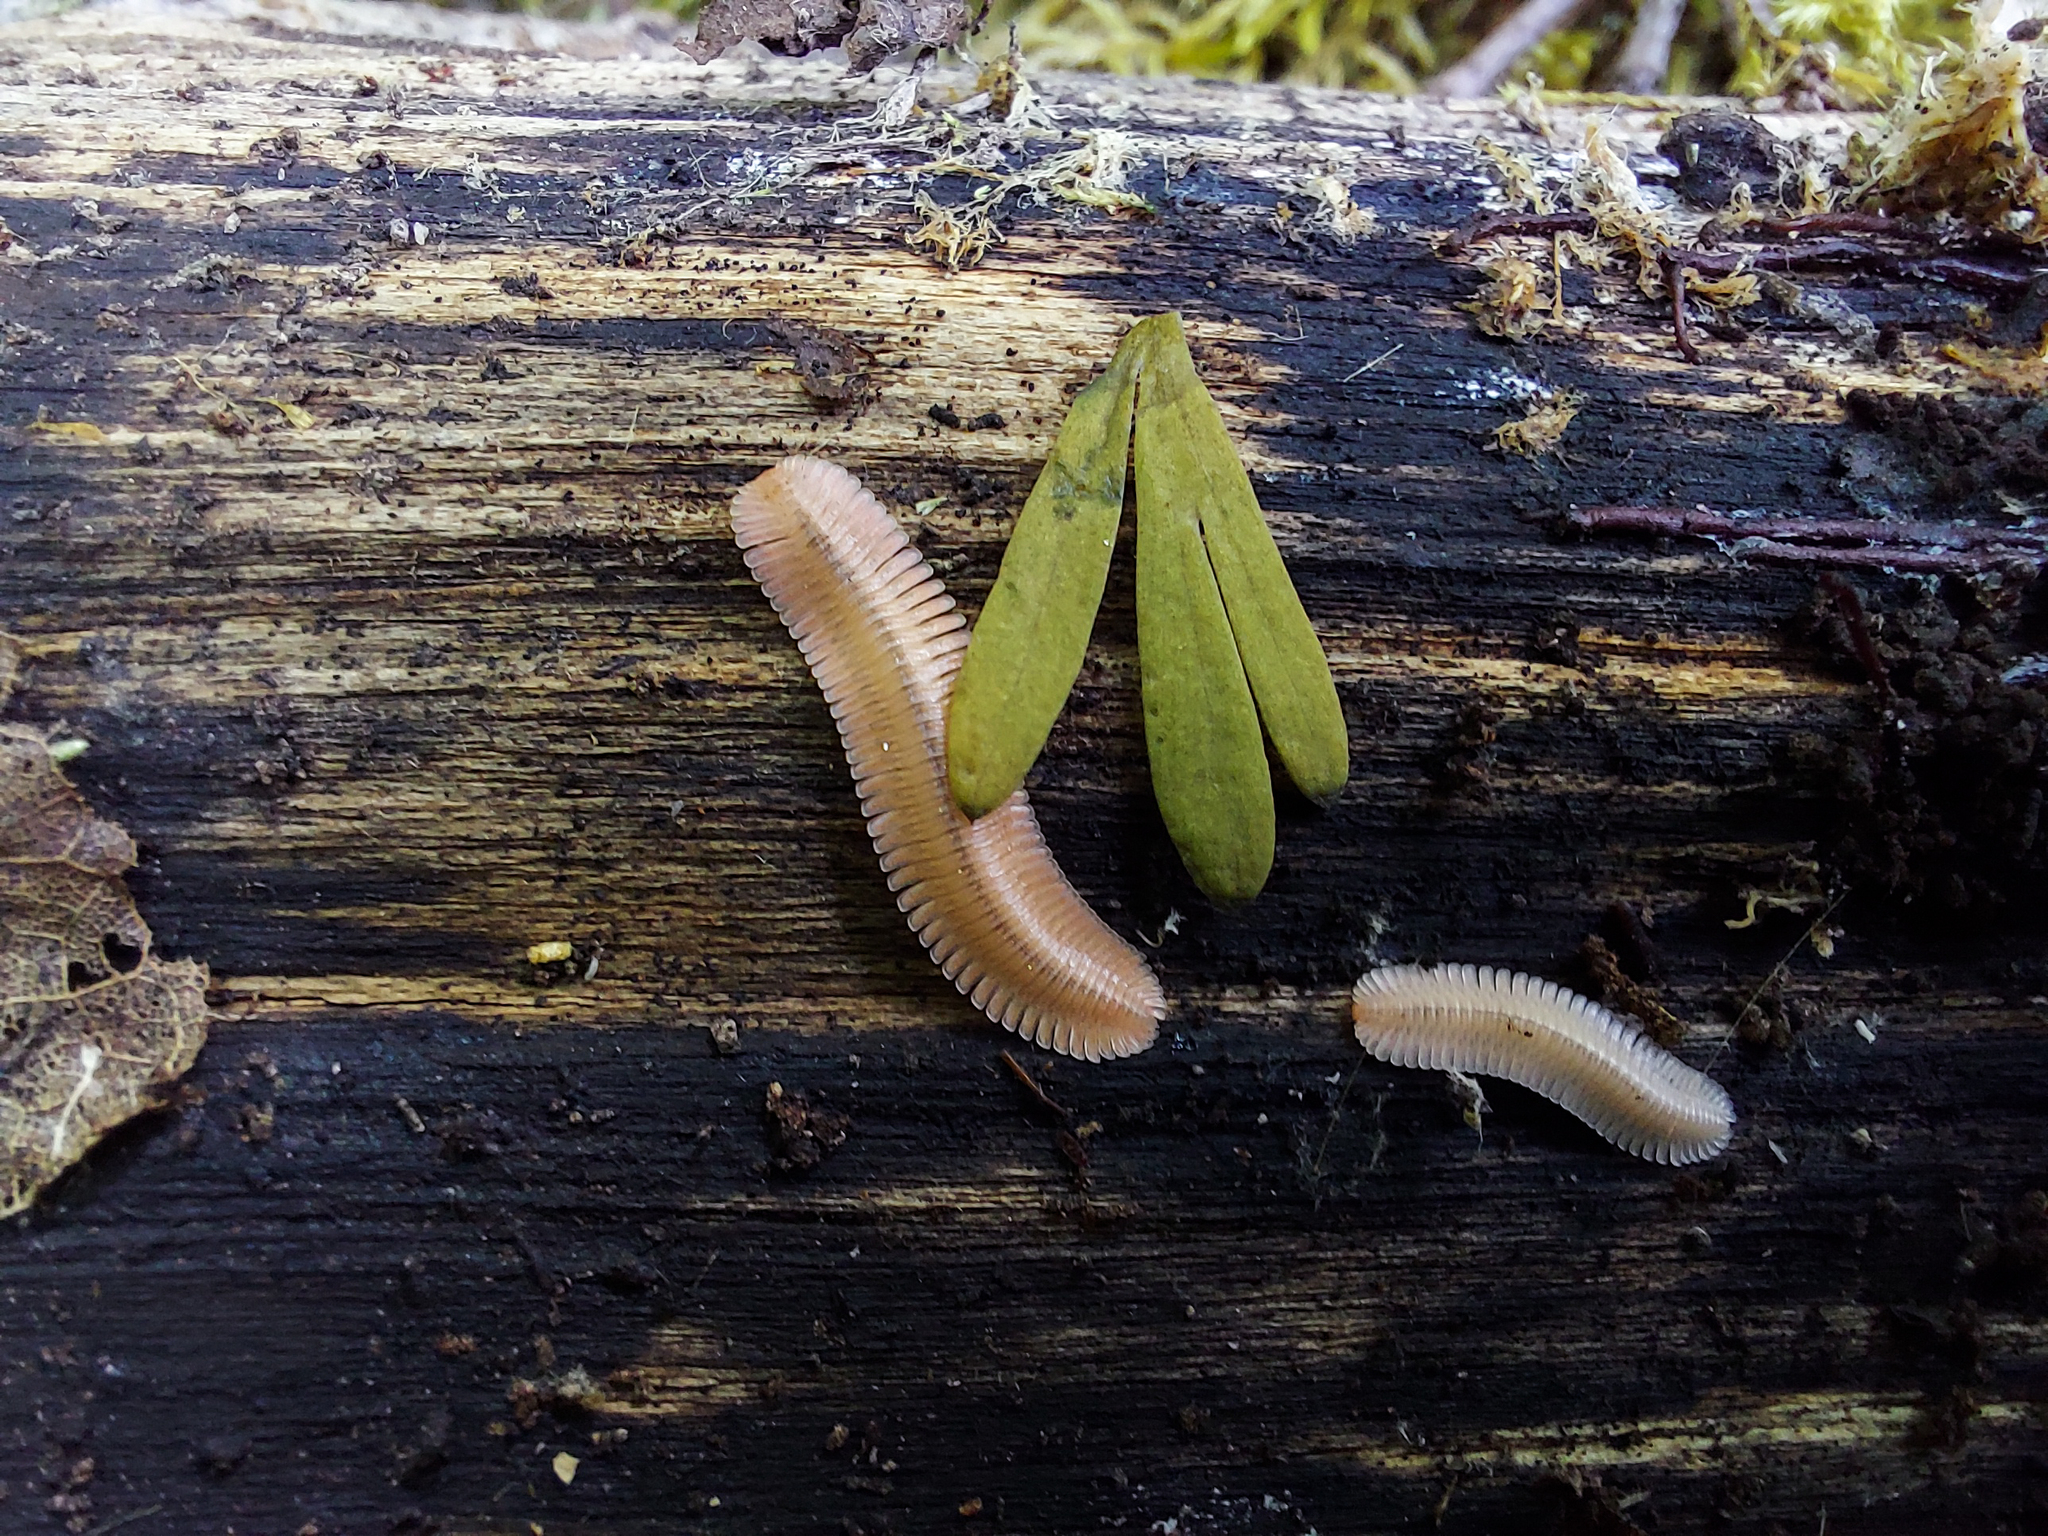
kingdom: Animalia
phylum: Arthropoda
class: Diplopoda
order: Platydesmida
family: Andrognathidae
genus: Brachycybe
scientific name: Brachycybe lecontii
